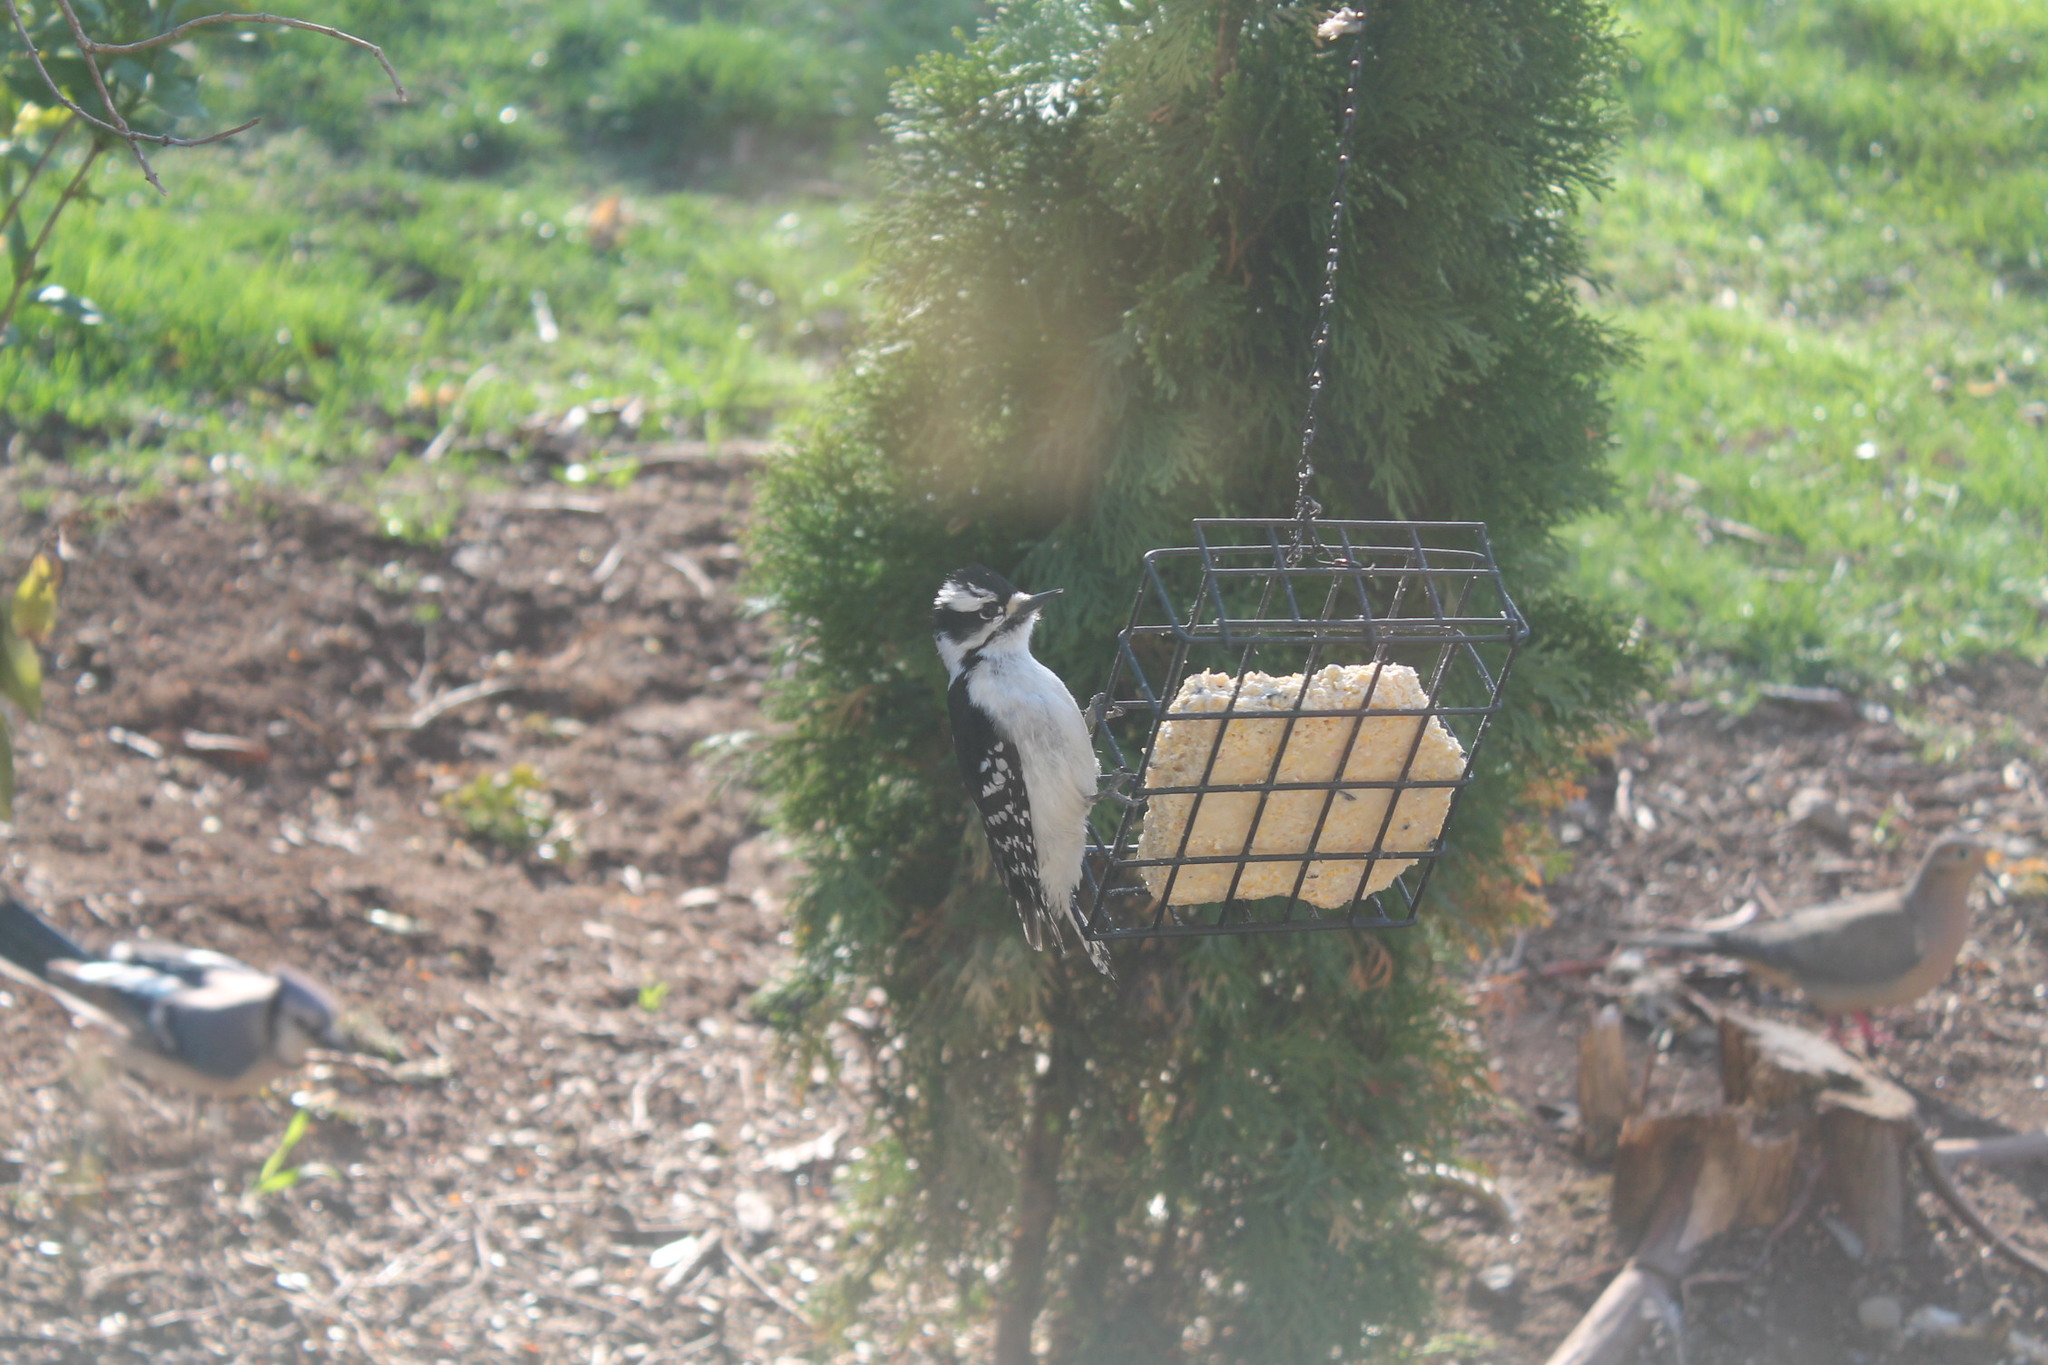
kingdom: Animalia
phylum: Chordata
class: Aves
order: Piciformes
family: Picidae
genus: Dryobates
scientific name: Dryobates pubescens
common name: Downy woodpecker
